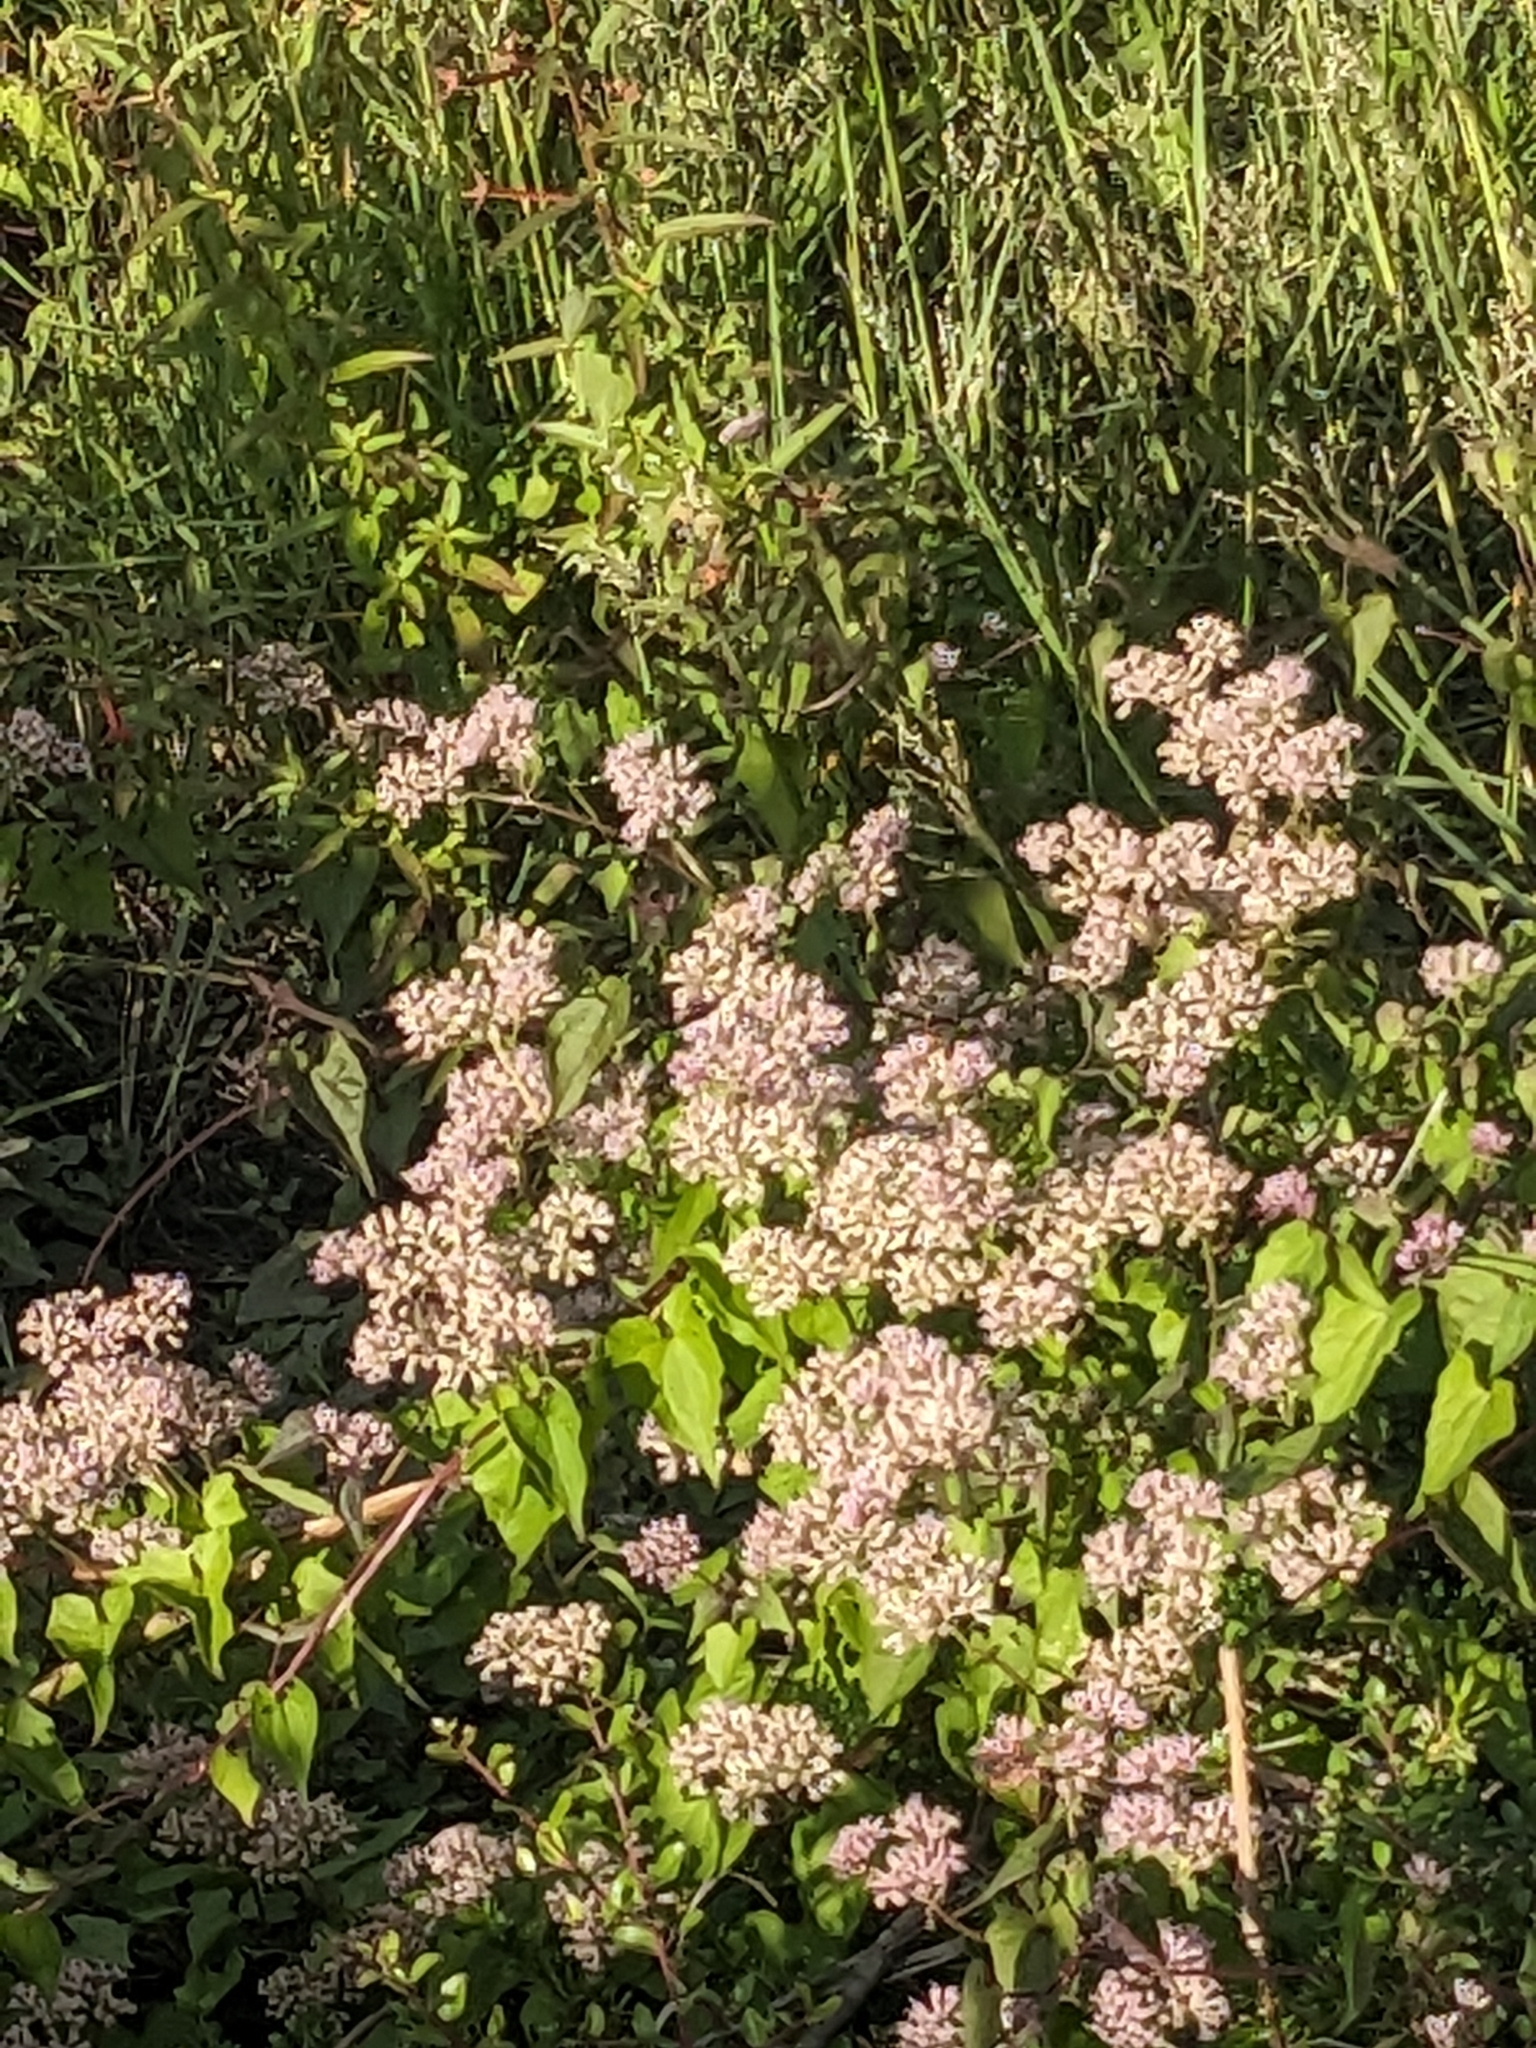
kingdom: Plantae
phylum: Tracheophyta
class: Magnoliopsida
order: Asterales
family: Asteraceae
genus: Mikania
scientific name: Mikania scandens
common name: Climbing hempvine
